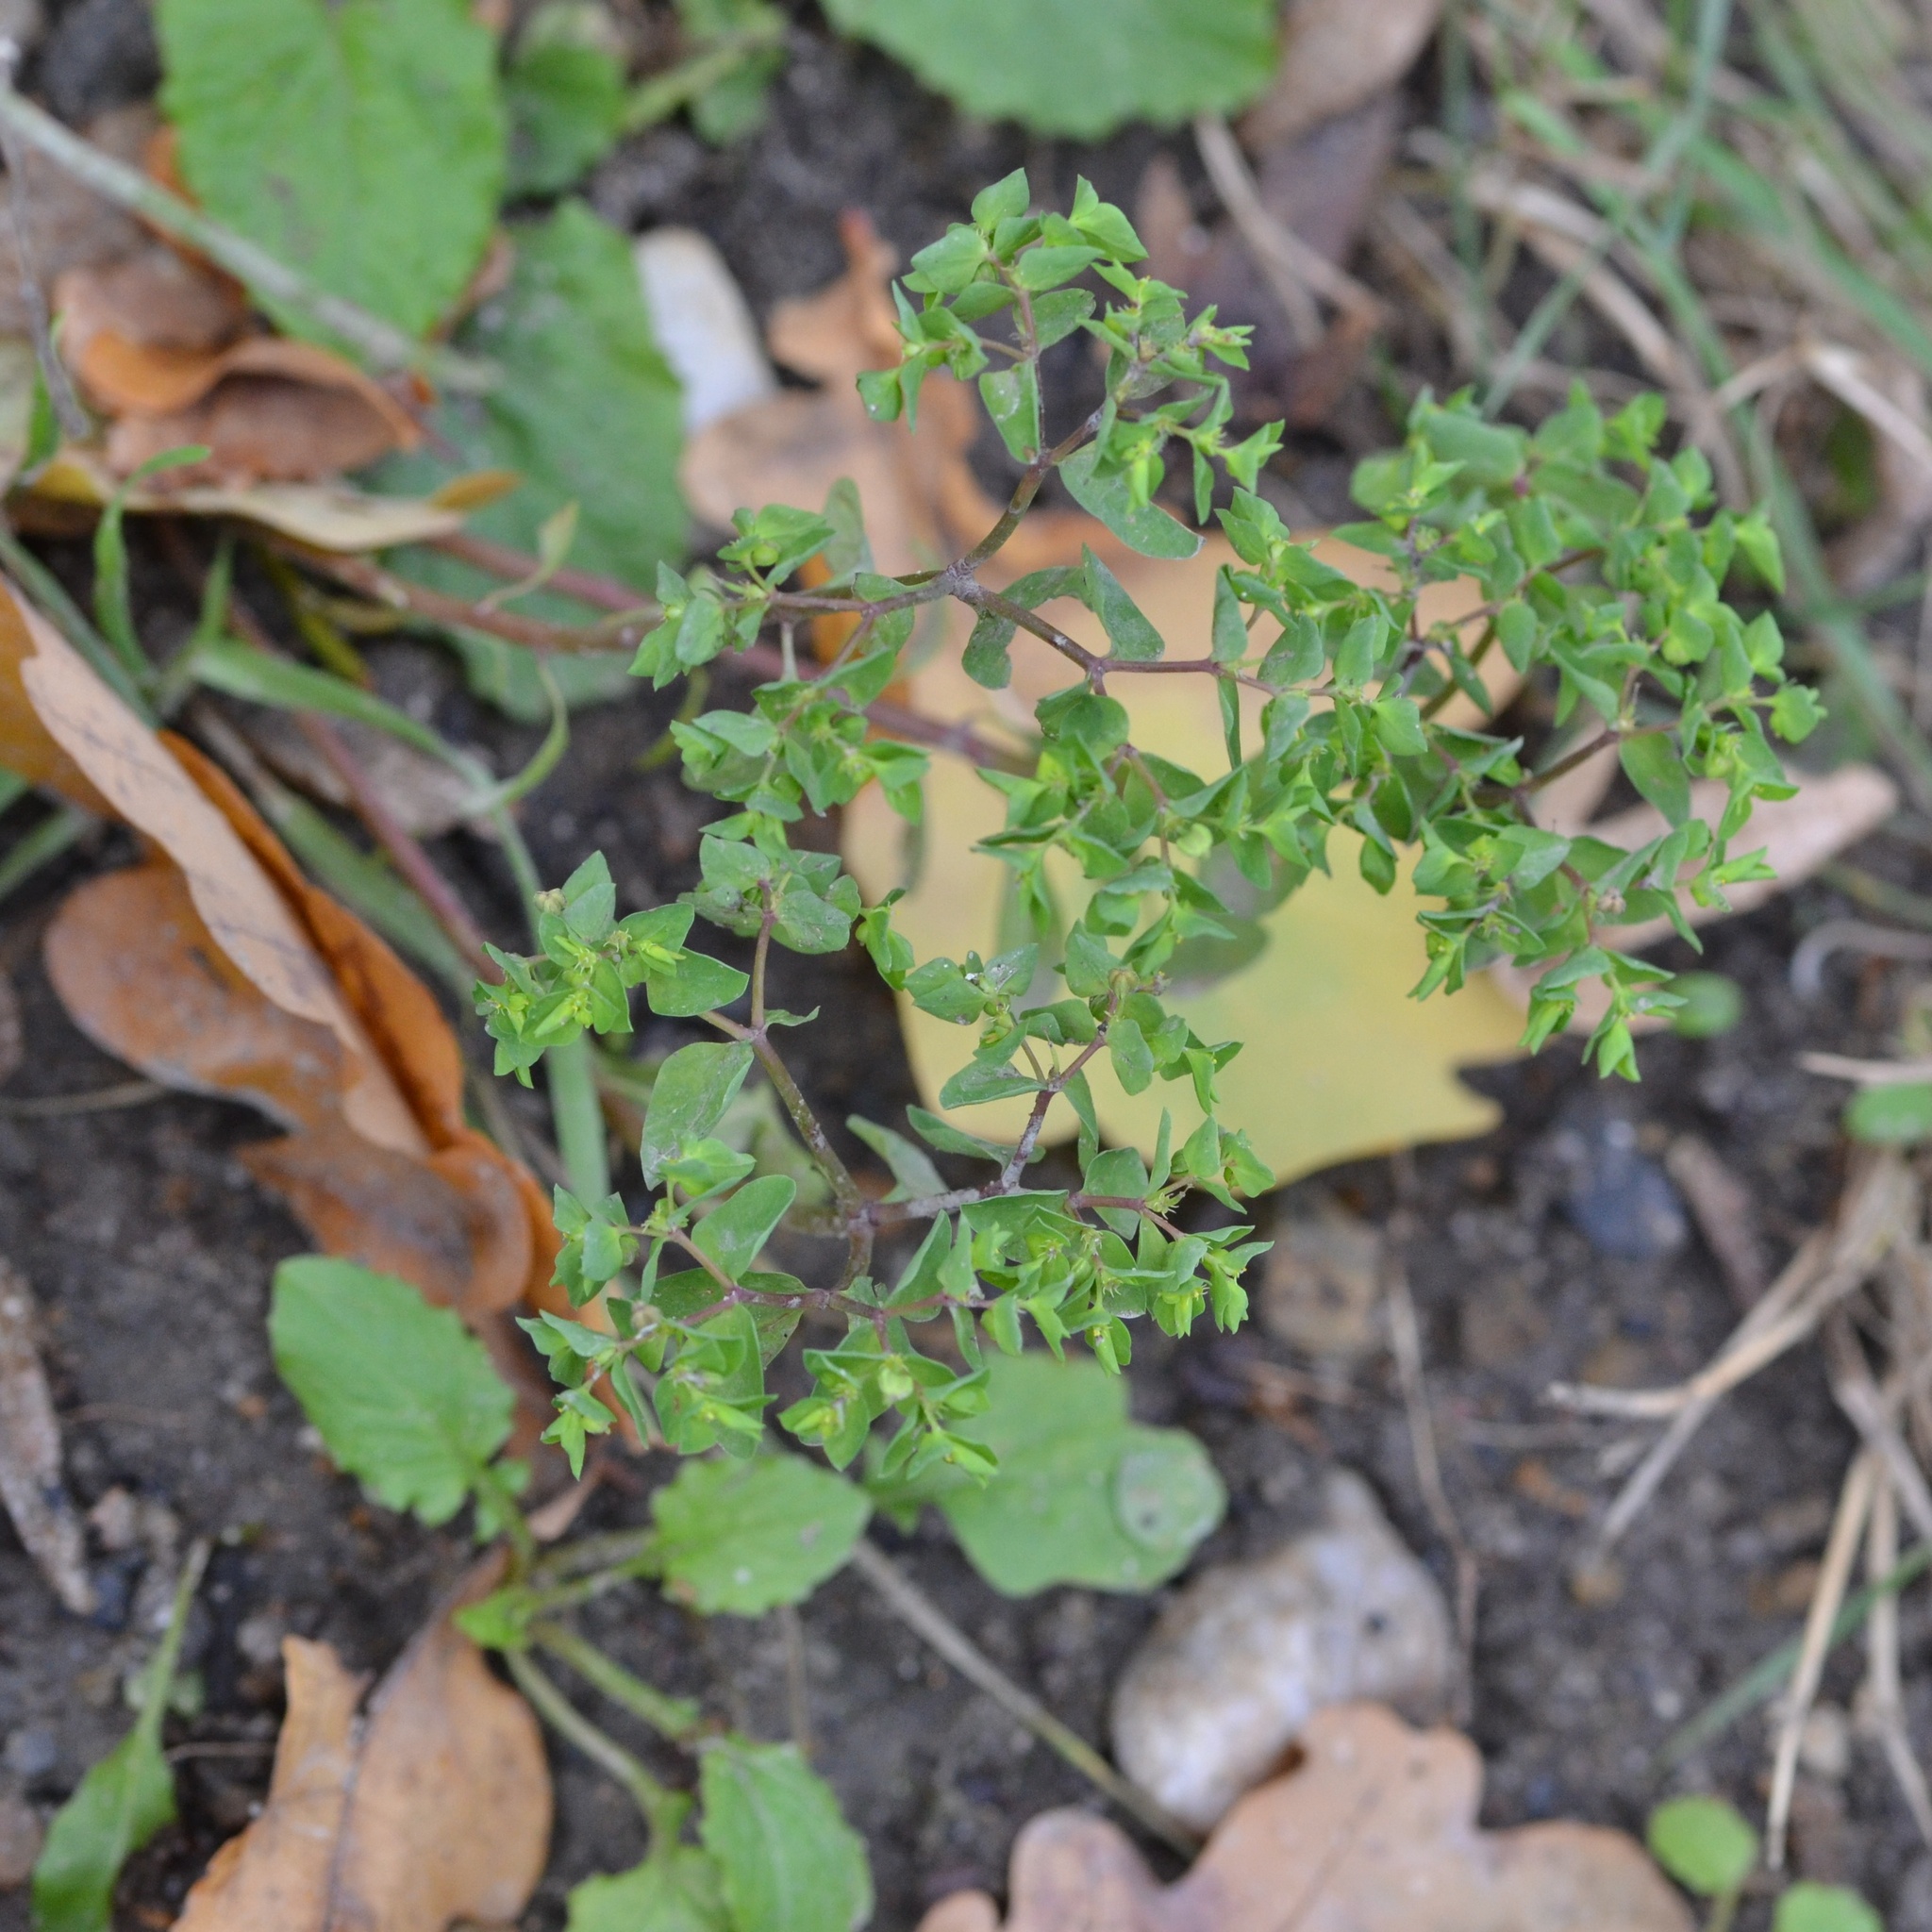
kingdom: Plantae
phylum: Tracheophyta
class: Magnoliopsida
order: Malpighiales
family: Euphorbiaceae
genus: Euphorbia
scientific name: Euphorbia peplus
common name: Petty spurge
